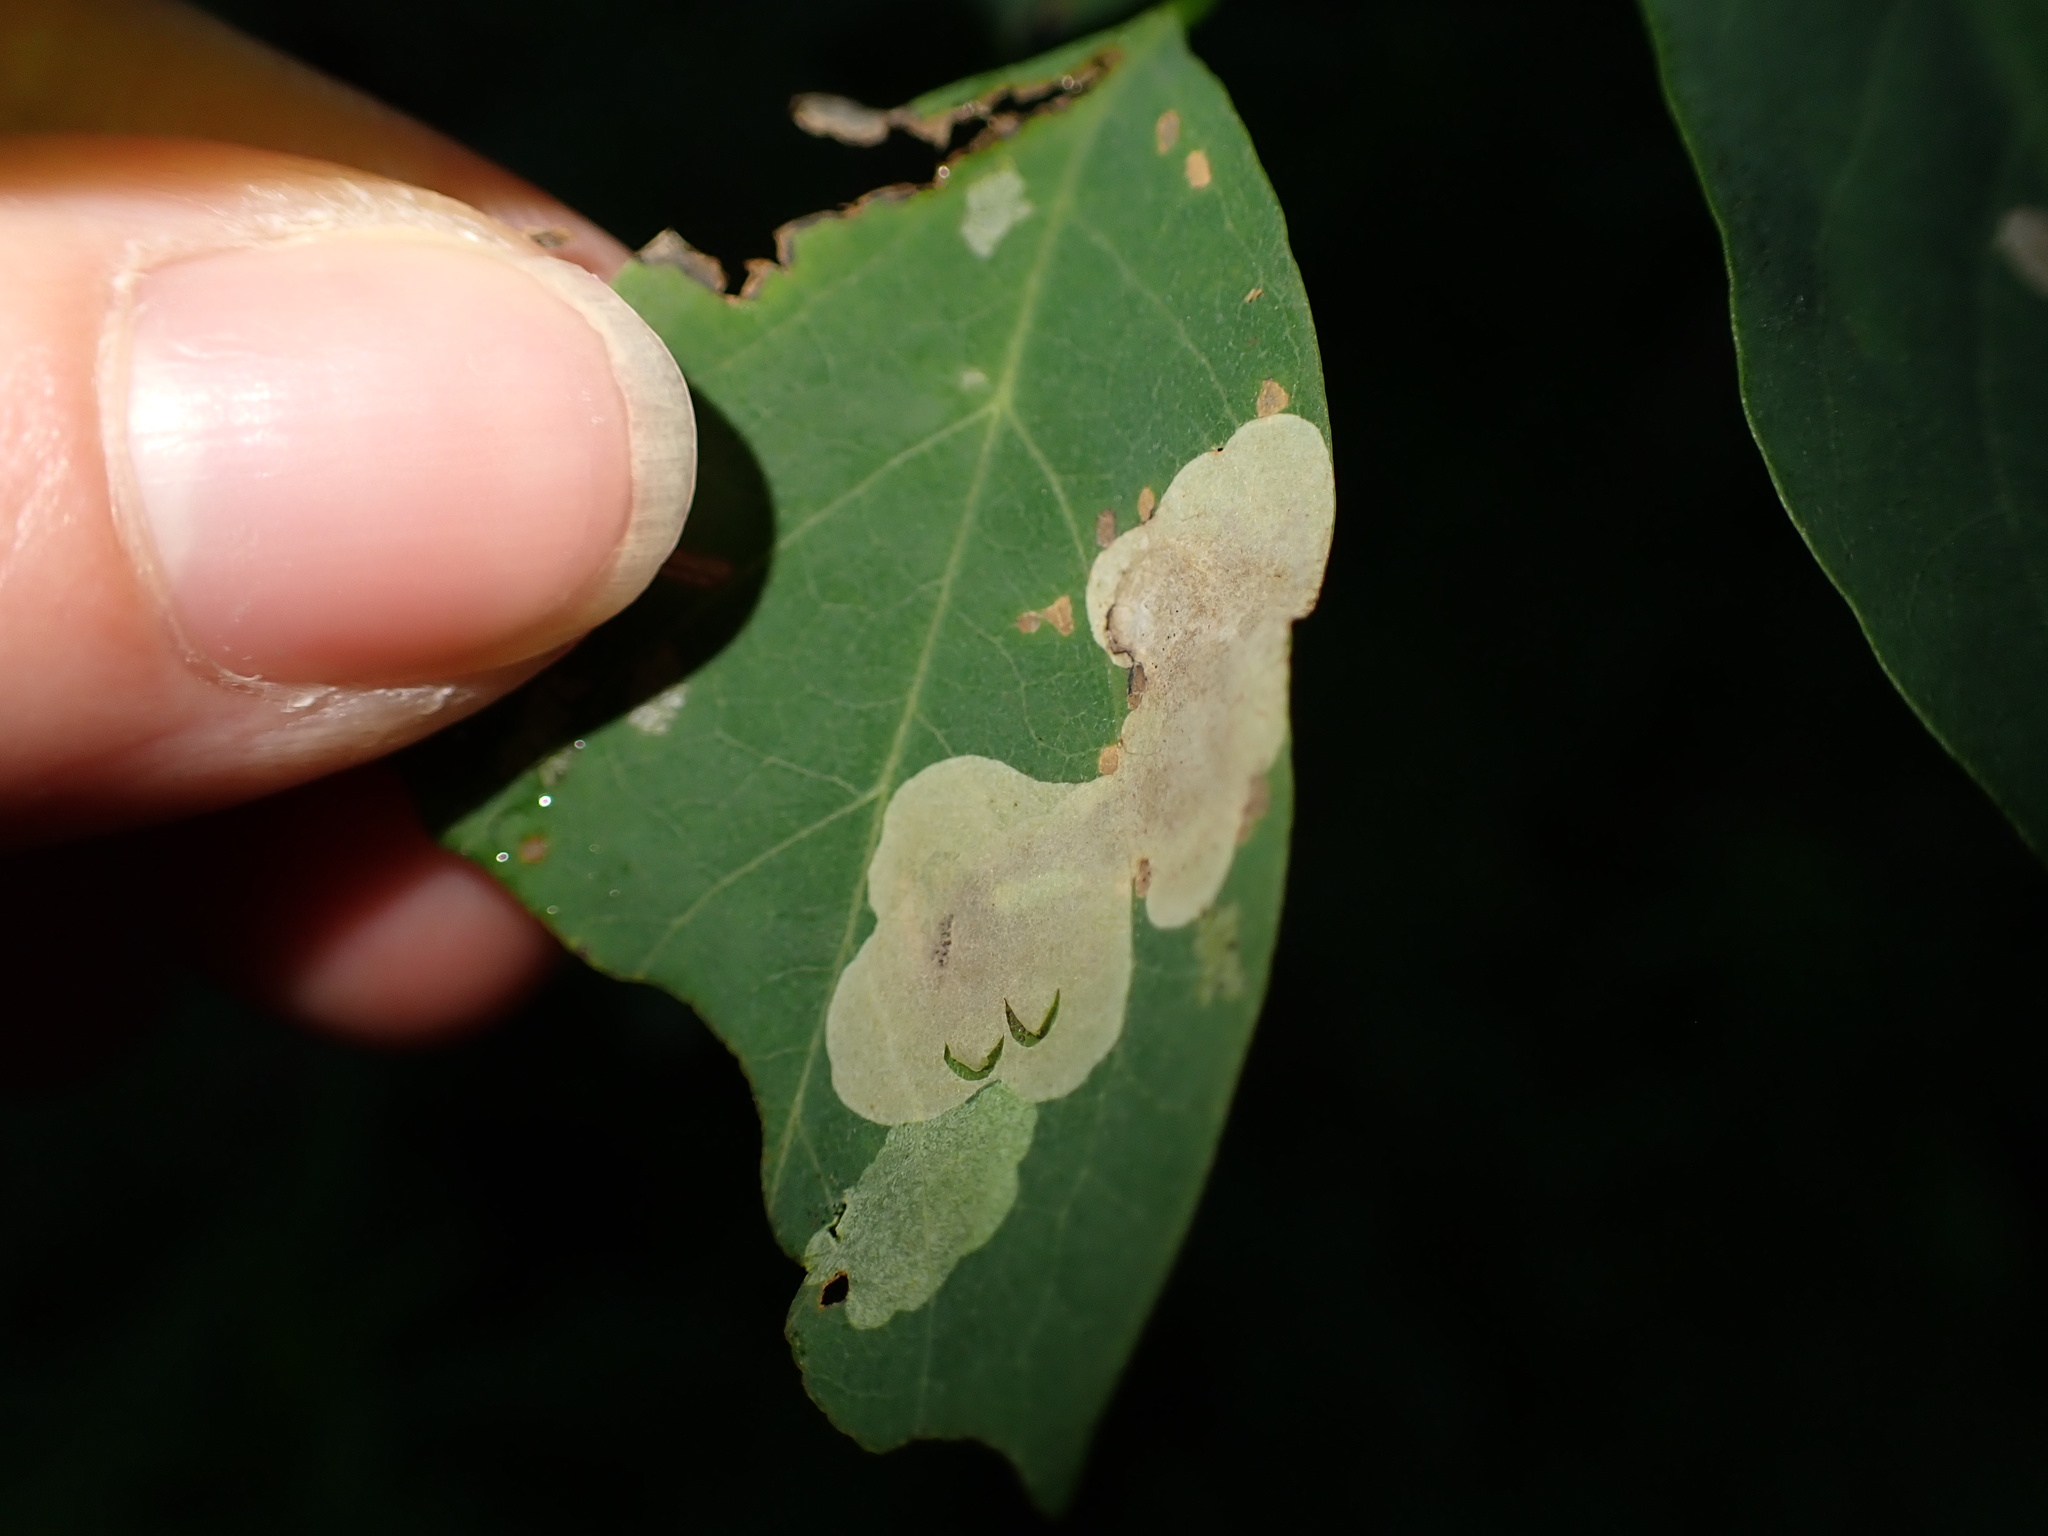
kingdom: Animalia
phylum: Arthropoda
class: Insecta
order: Lepidoptera
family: Gracillariidae
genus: Chrysaster
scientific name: Chrysaster ostensackenella
